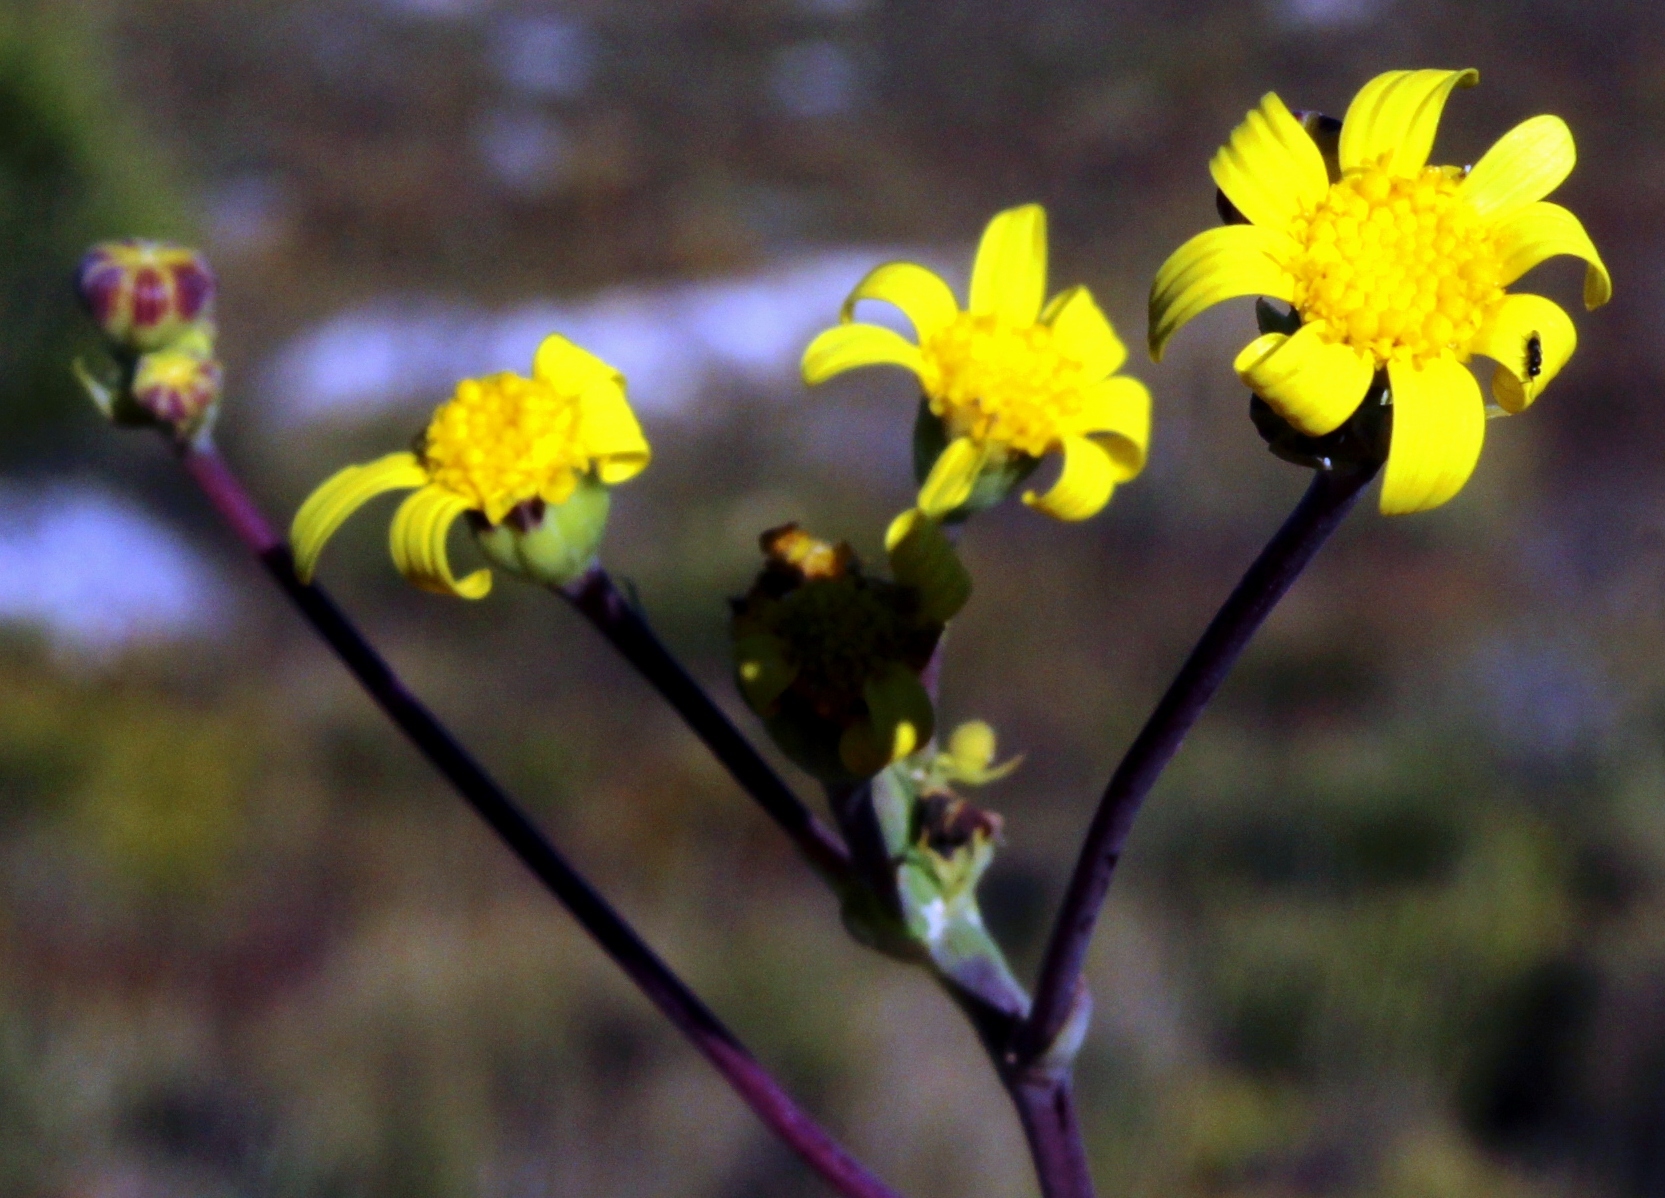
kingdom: Plantae
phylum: Tracheophyta
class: Magnoliopsida
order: Asterales
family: Asteraceae
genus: Othonna
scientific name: Othonna quinquedentata
